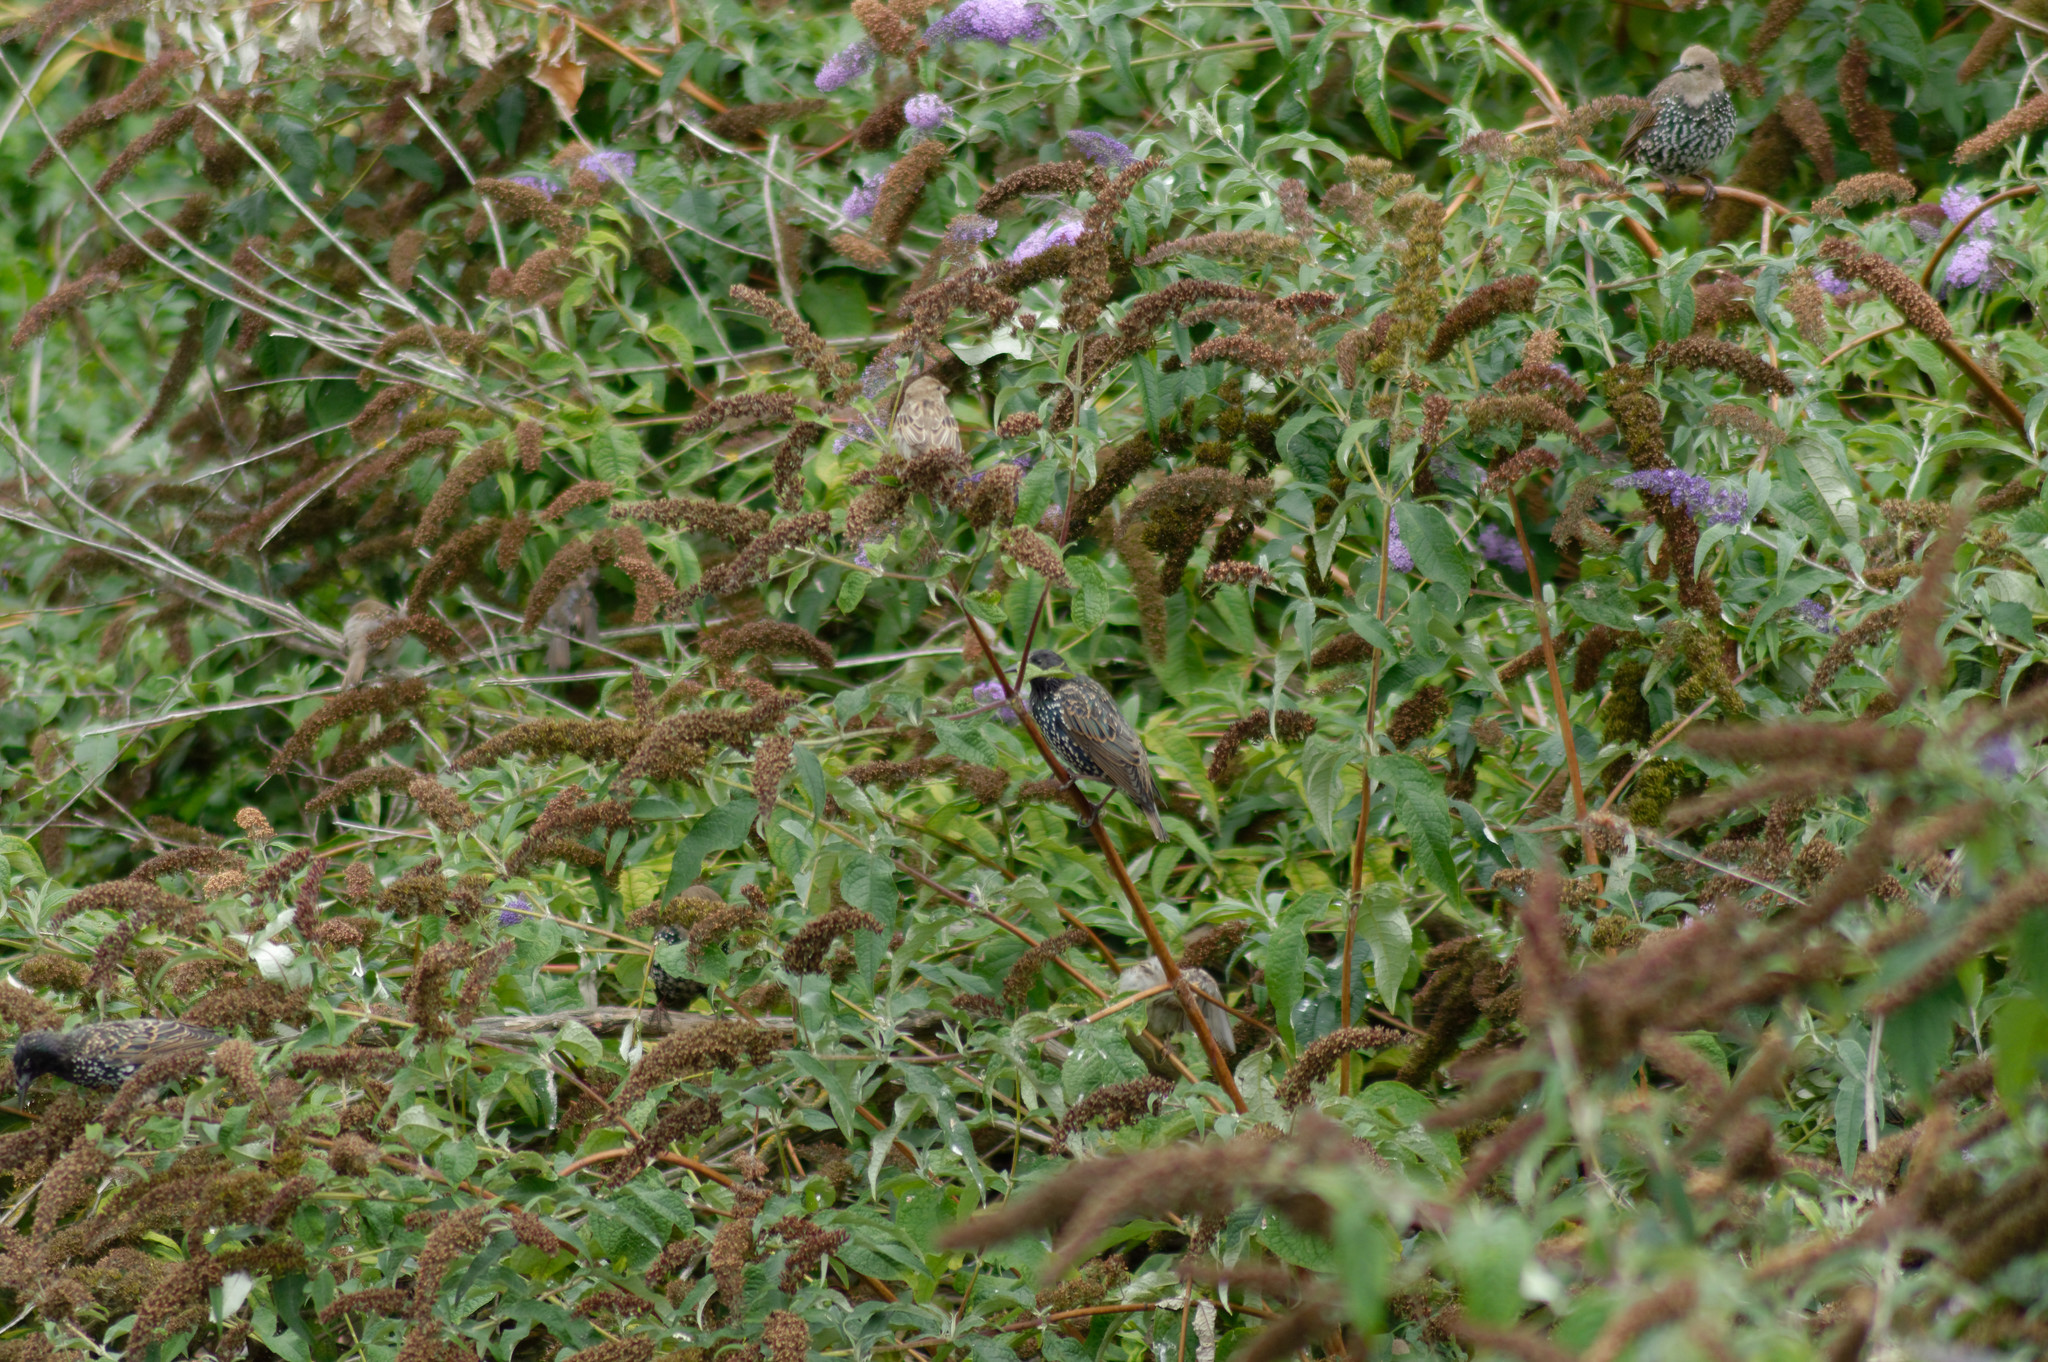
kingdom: Animalia
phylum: Chordata
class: Aves
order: Passeriformes
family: Sturnidae
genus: Sturnus
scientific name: Sturnus vulgaris
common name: Common starling
